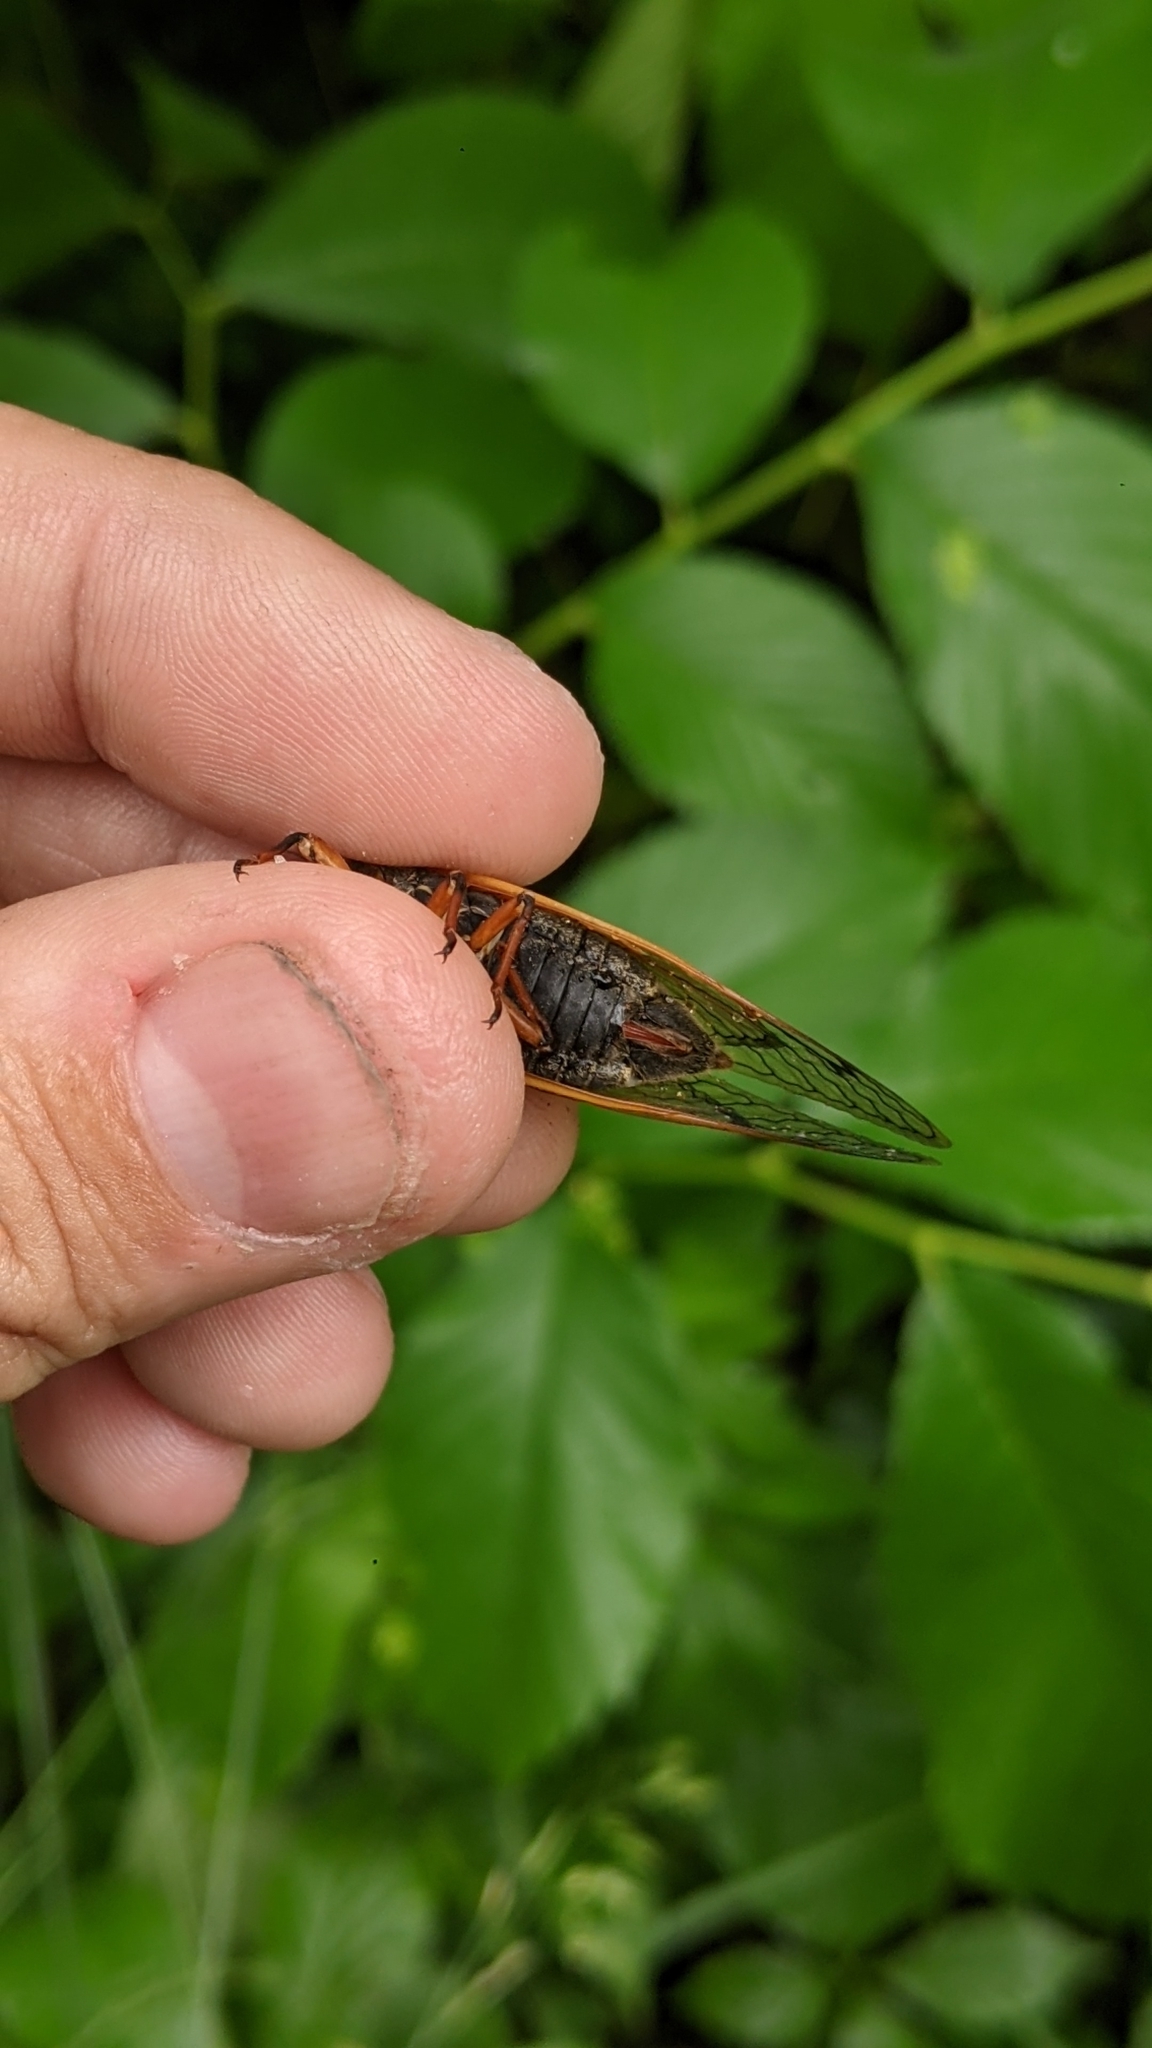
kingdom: Animalia
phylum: Arthropoda
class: Insecta
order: Hemiptera
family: Cicadidae
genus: Magicicada
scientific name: Magicicada cassini
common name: Cassin's 17-year cicada
